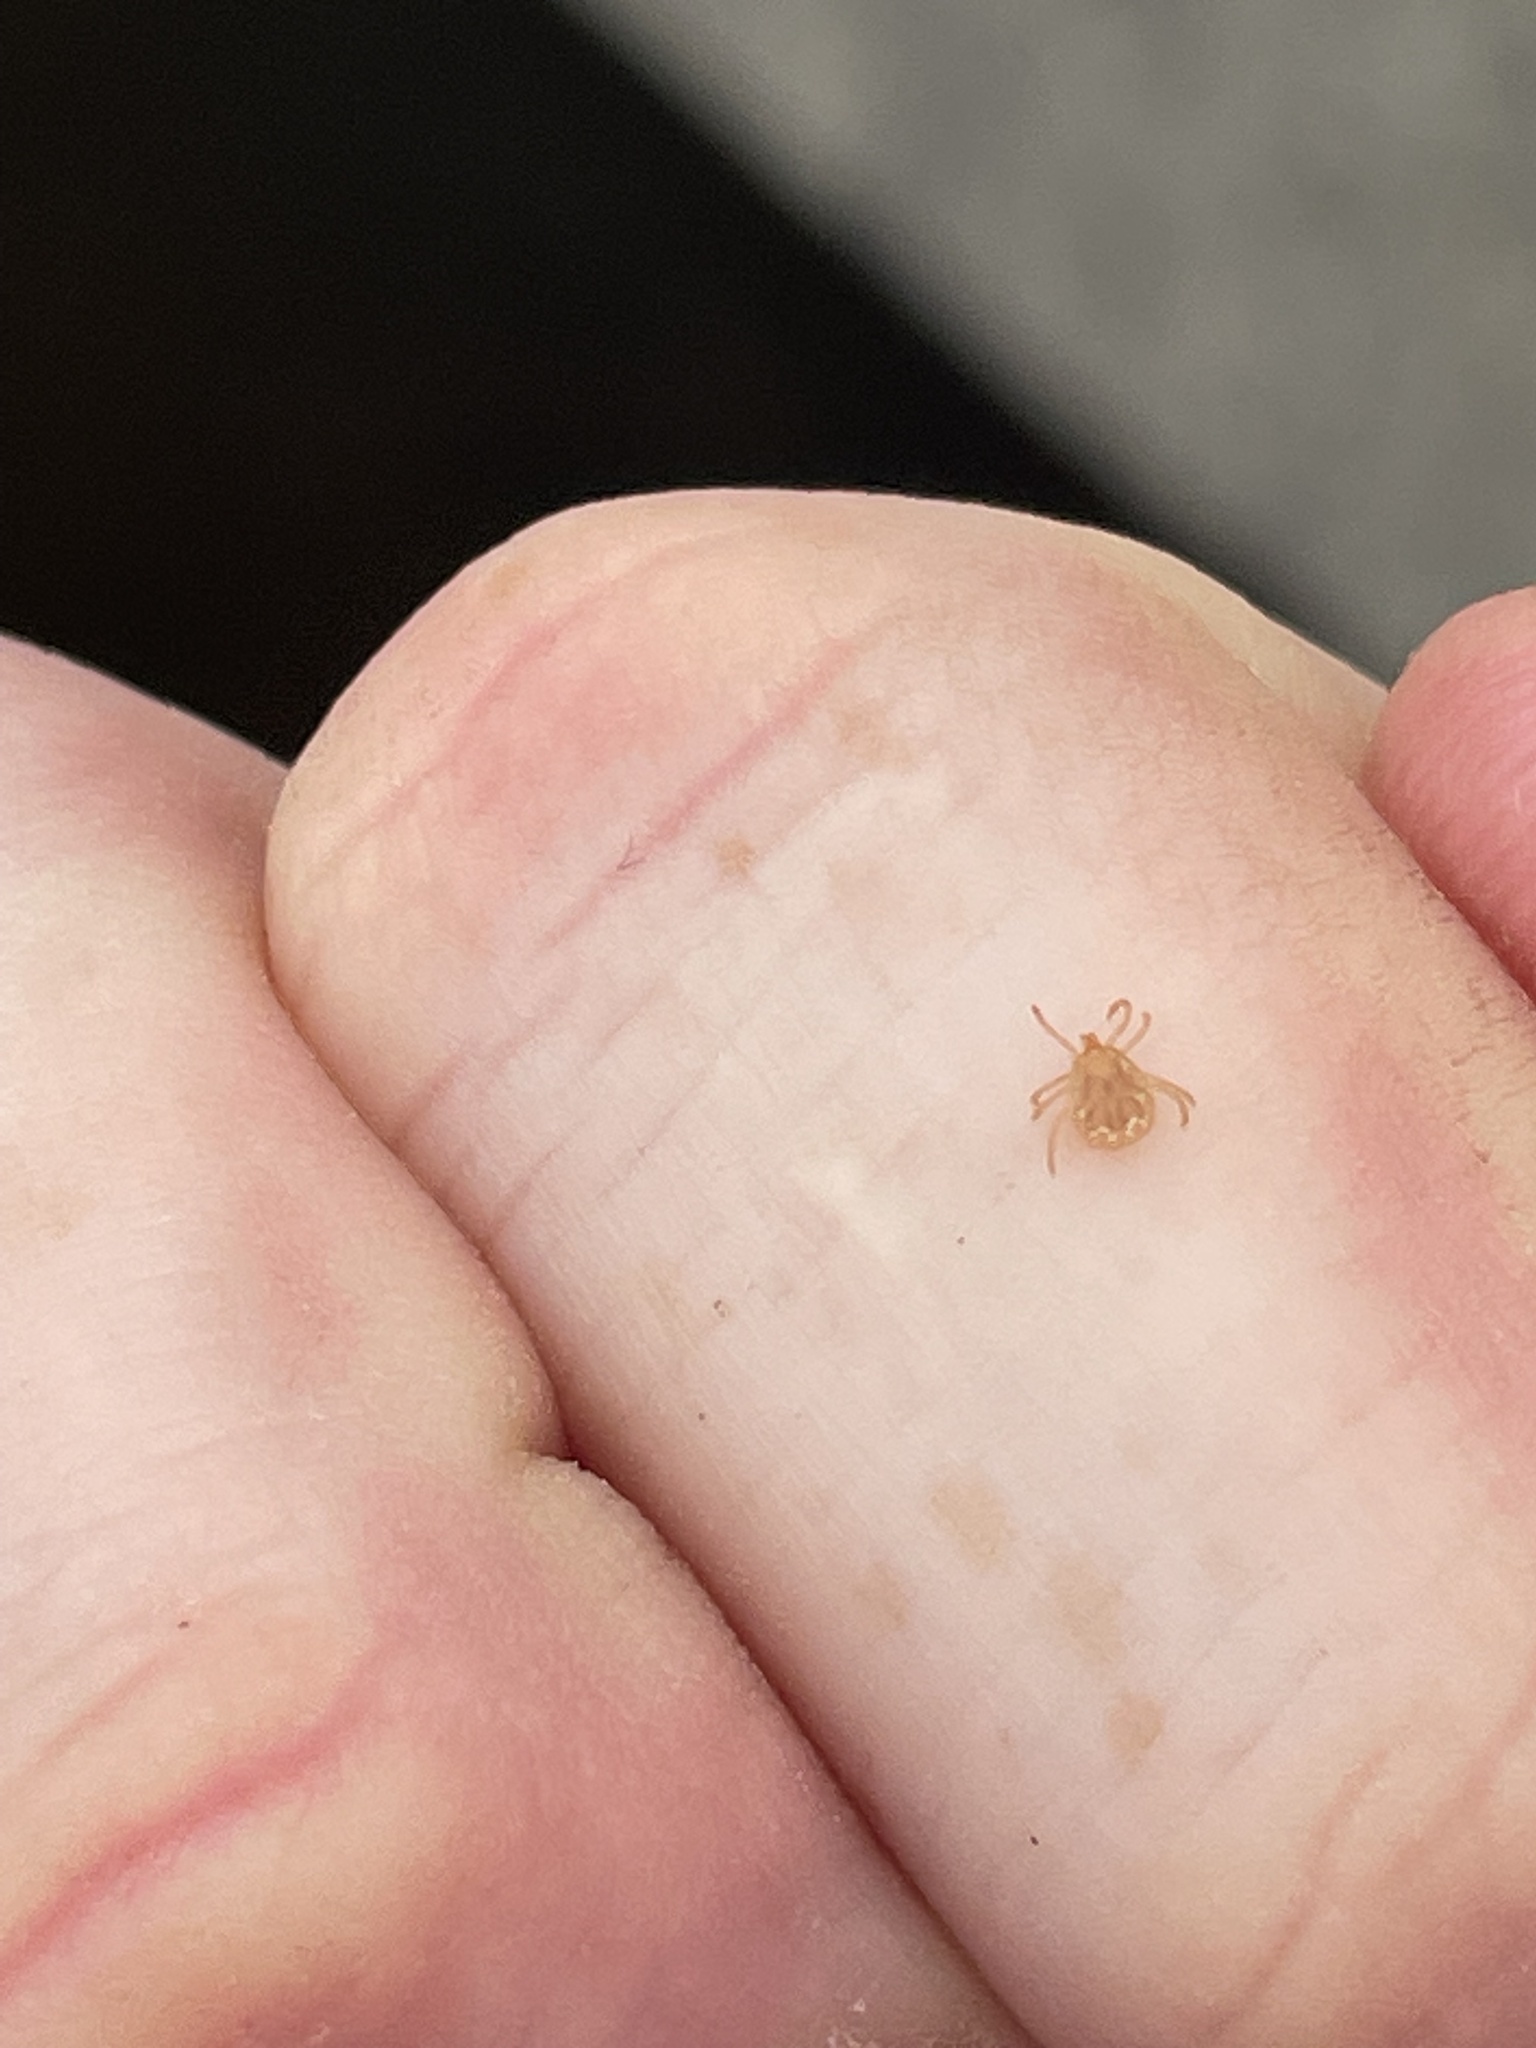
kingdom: Animalia
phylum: Arthropoda
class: Arachnida
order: Ixodida
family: Ixodidae
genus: Amblyomma
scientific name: Amblyomma americanum
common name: Lone star tick
